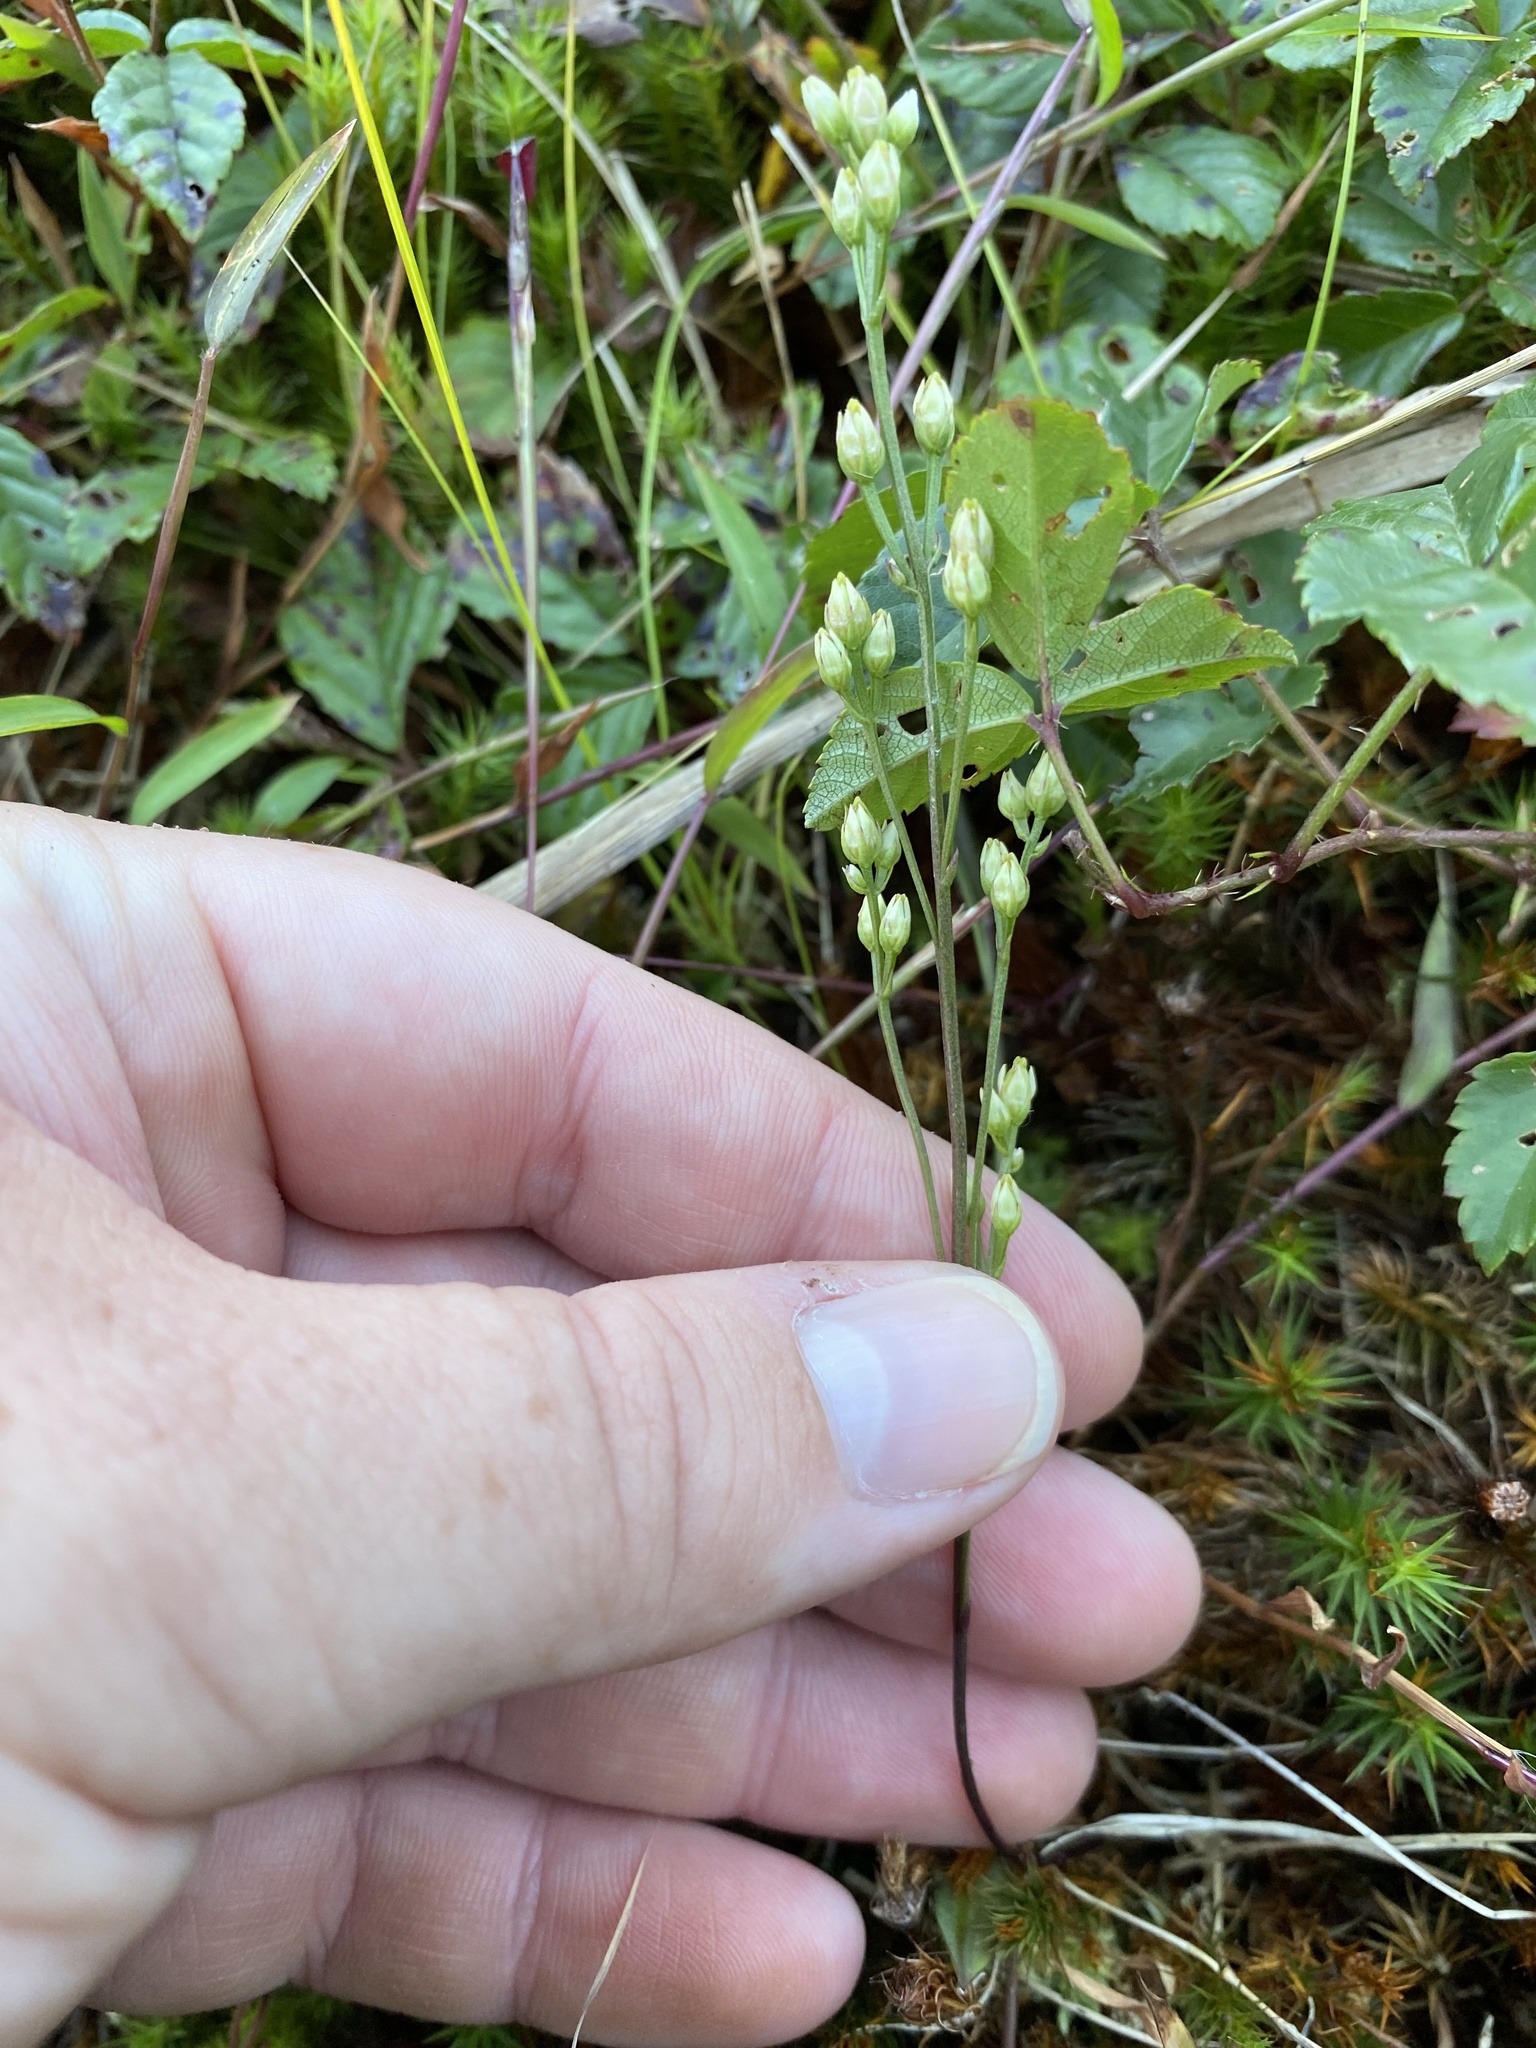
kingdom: Plantae
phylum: Tracheophyta
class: Magnoliopsida
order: Gentianales
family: Gentianaceae
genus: Bartonia
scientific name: Bartonia paniculata
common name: Branched bartonia
